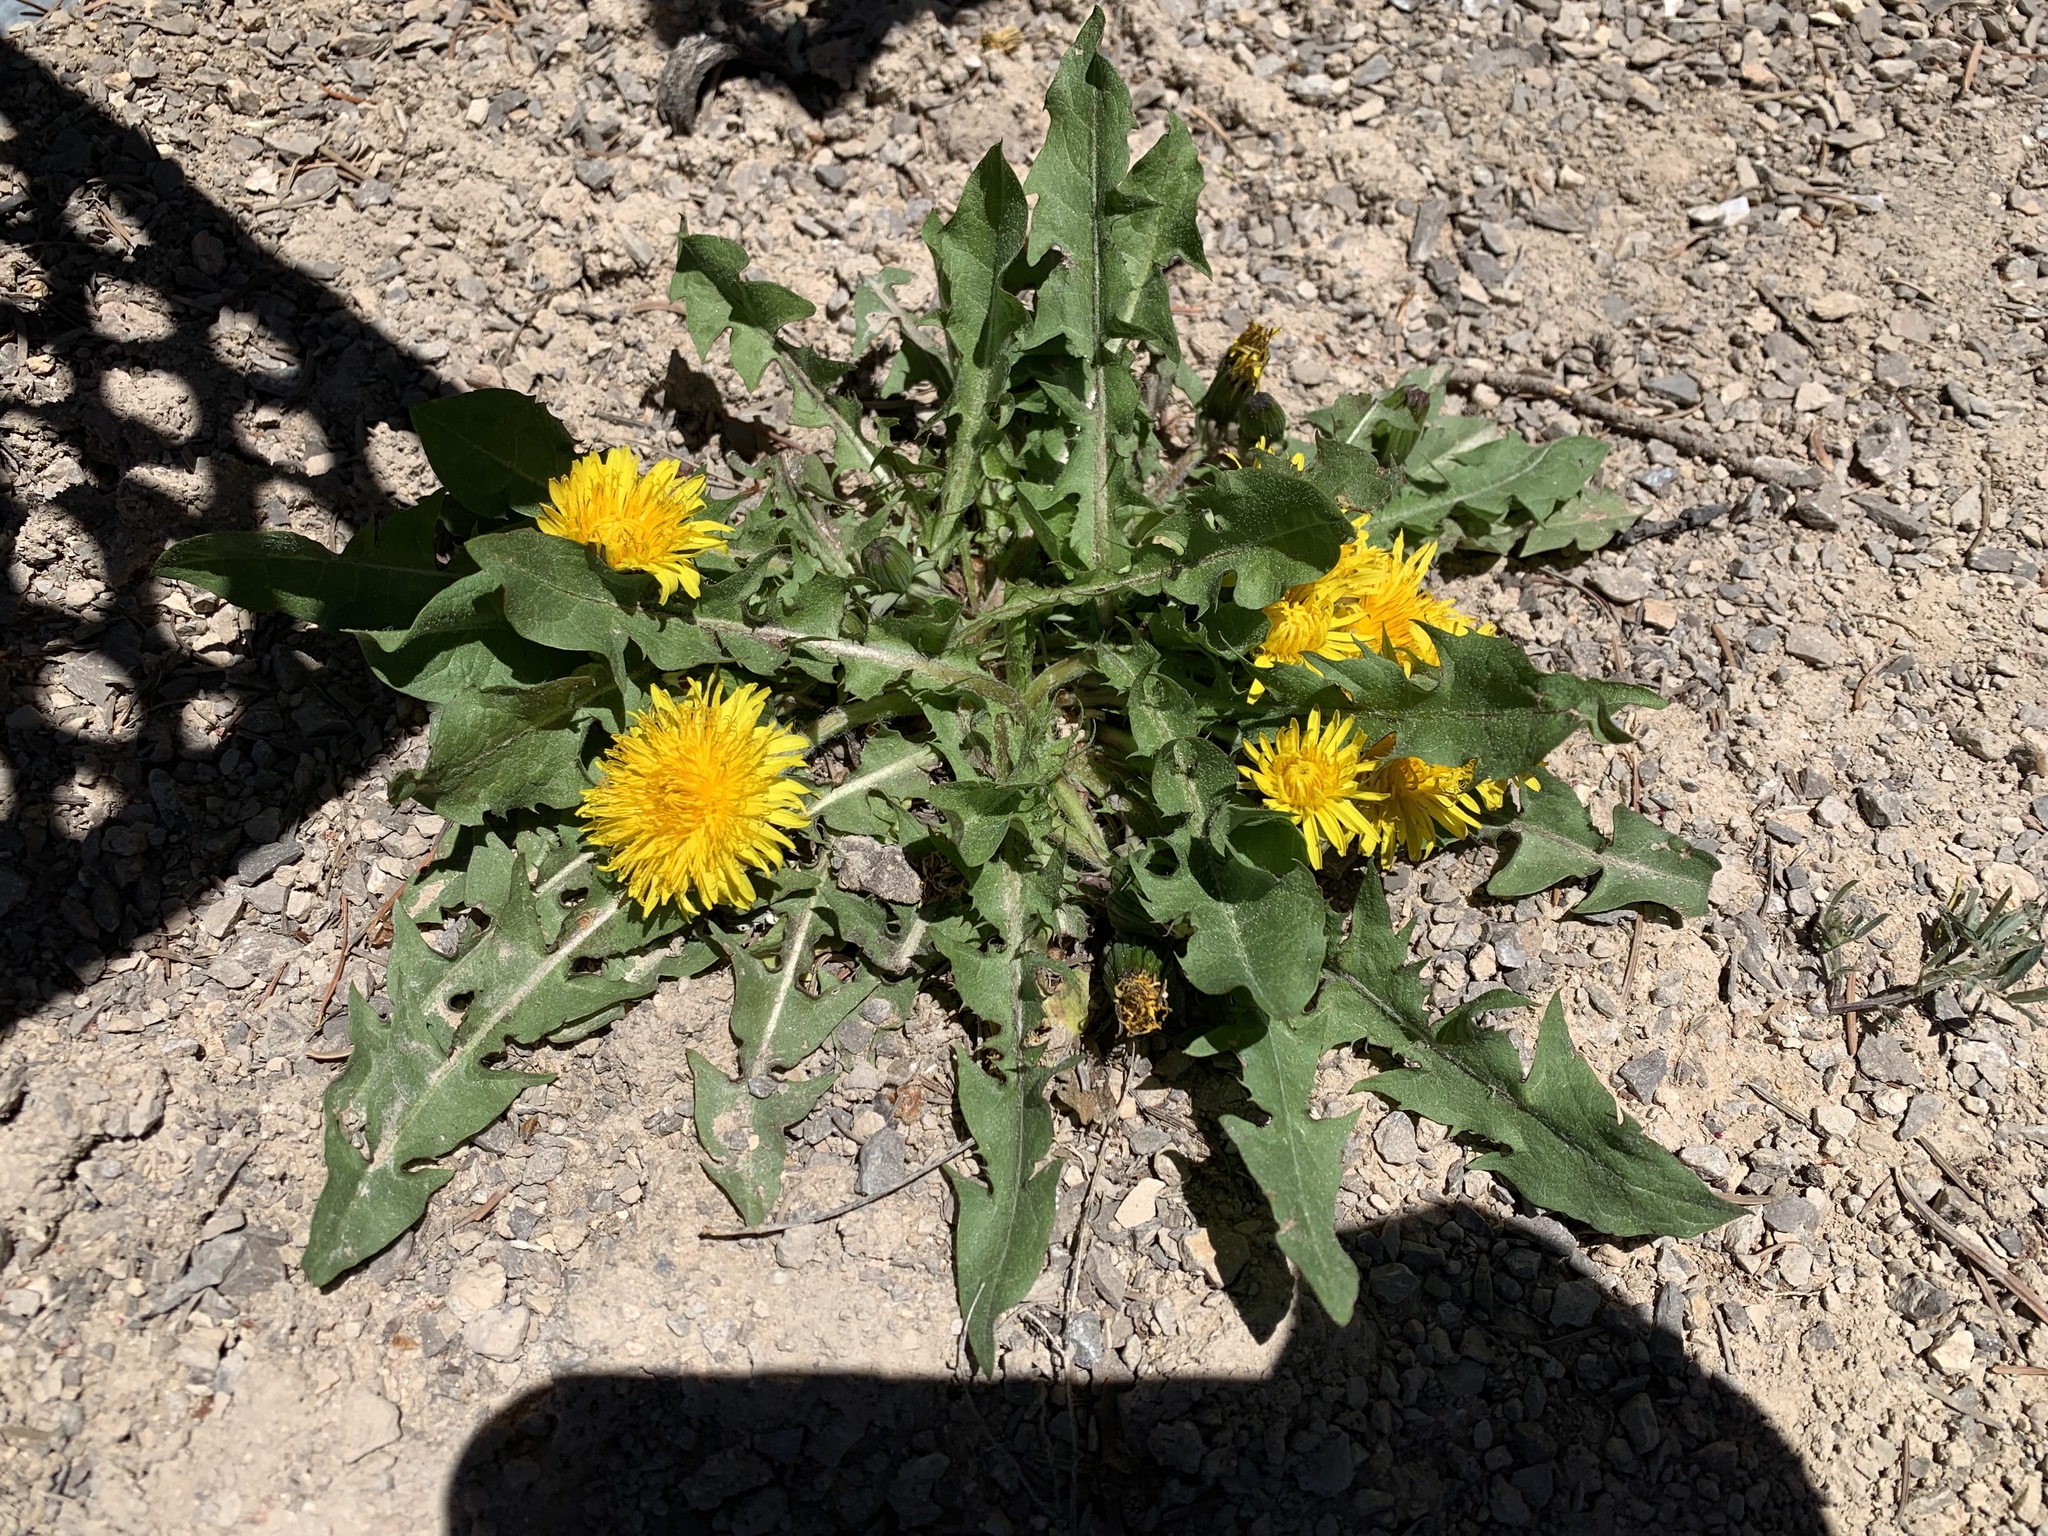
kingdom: Plantae
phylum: Tracheophyta
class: Magnoliopsida
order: Asterales
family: Asteraceae
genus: Taraxacum
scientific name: Taraxacum officinale
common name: Common dandelion
